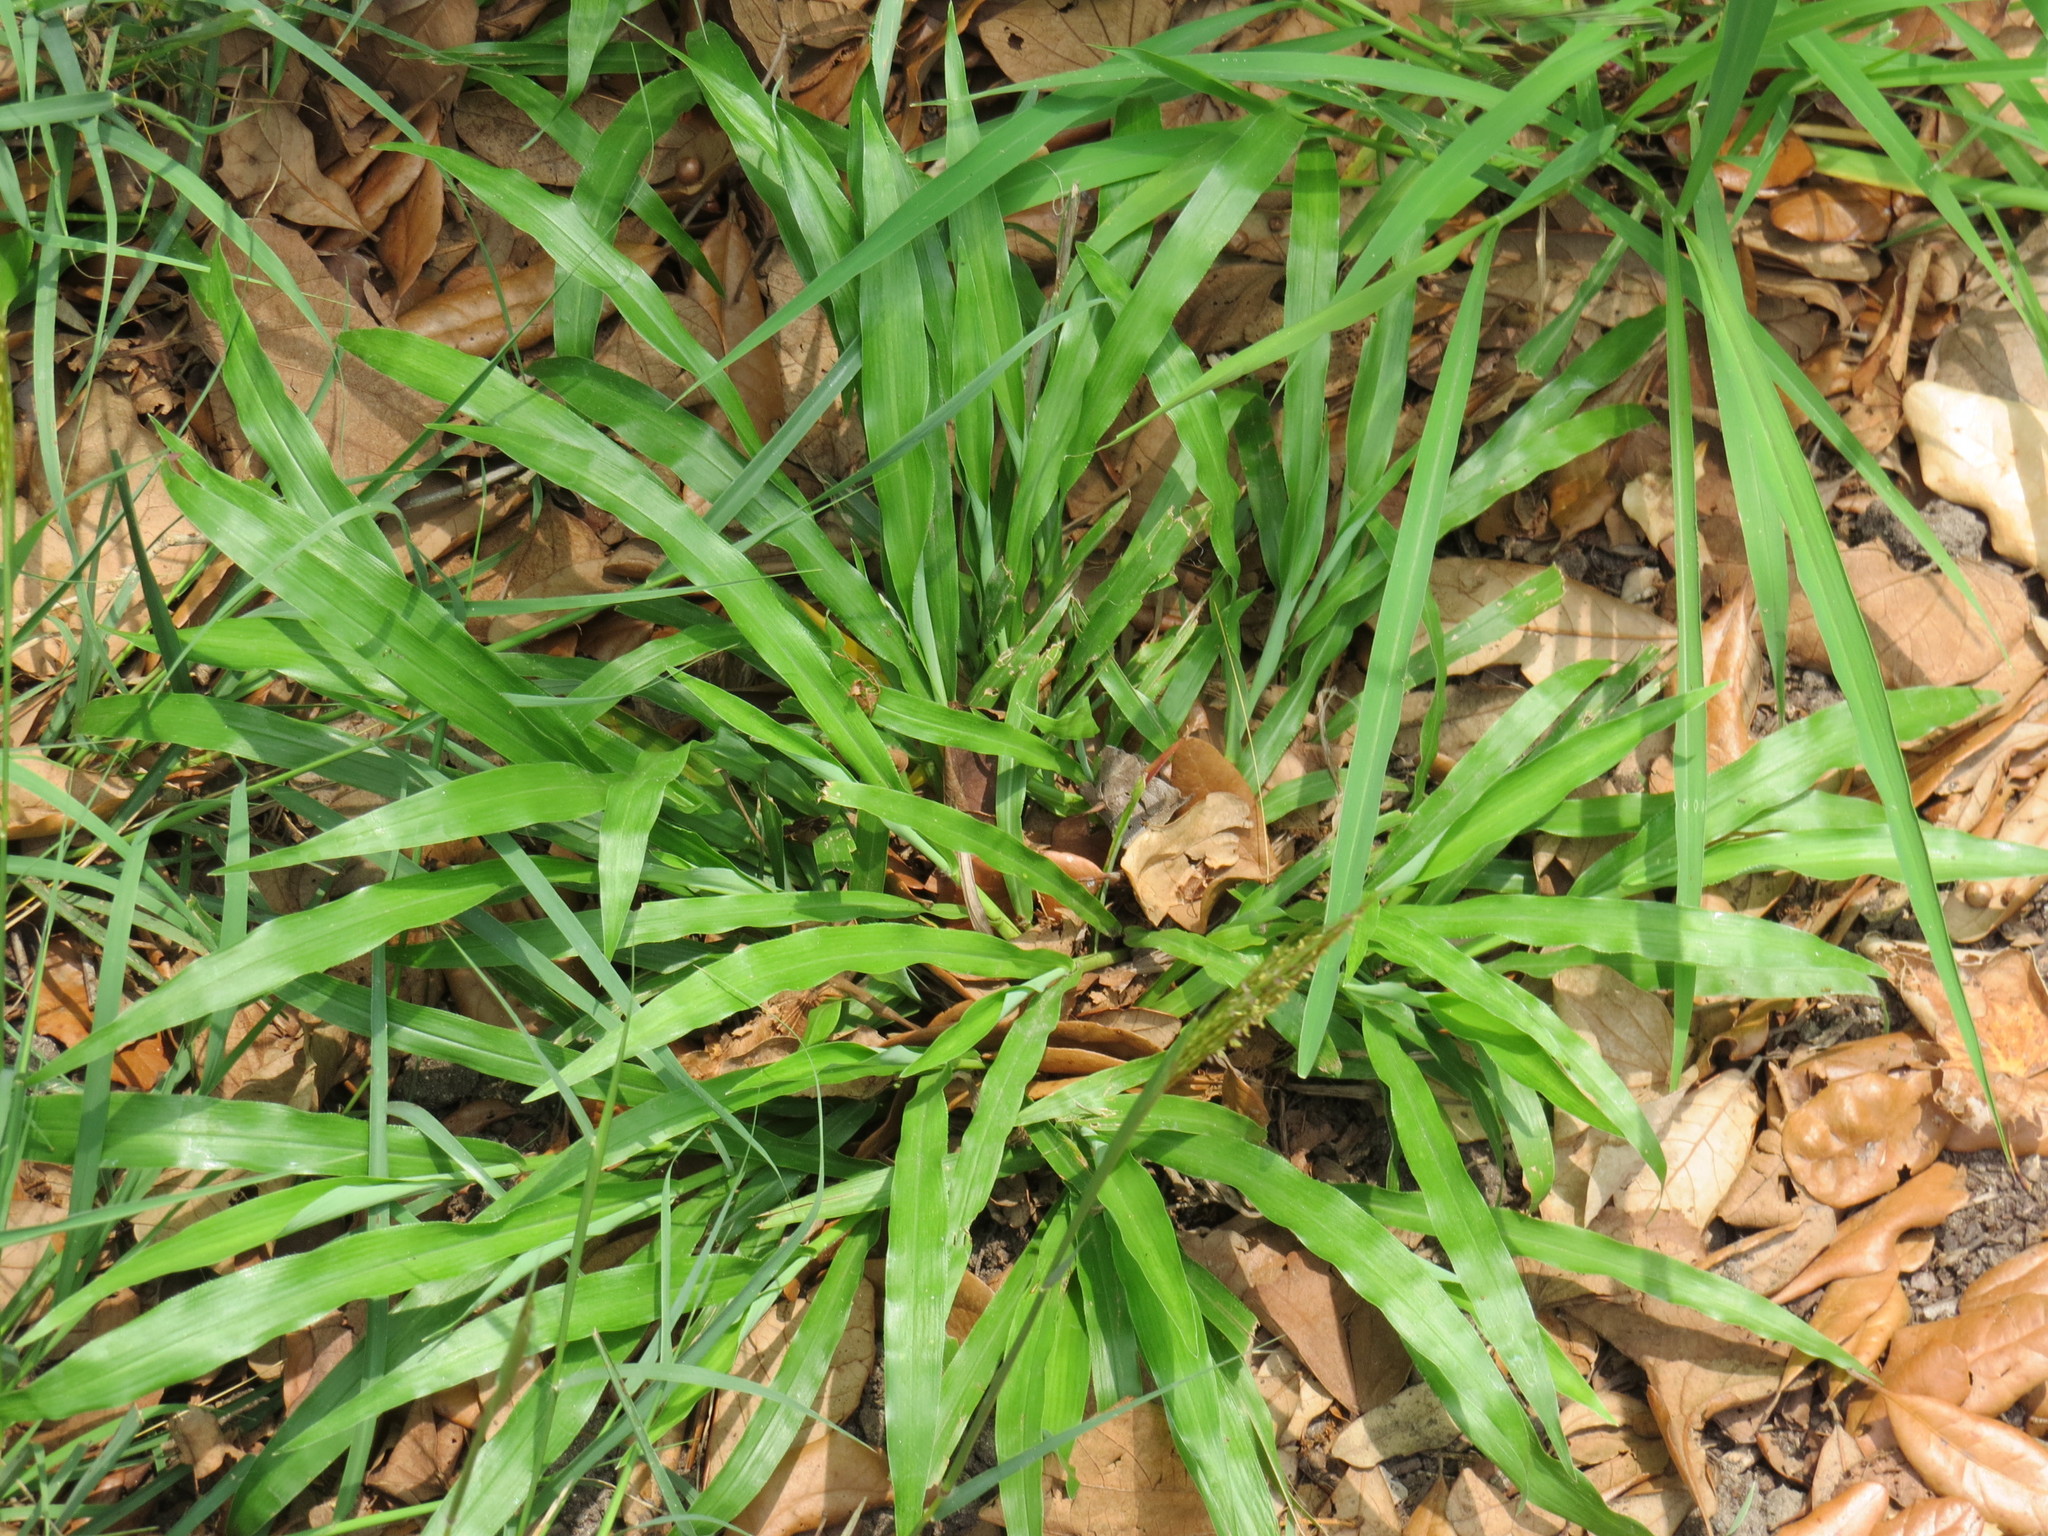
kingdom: Plantae
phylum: Tracheophyta
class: Liliopsida
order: Poales
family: Poaceae
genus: Paspalum
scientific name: Paspalum langei
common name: Rusty-seed paspalum
